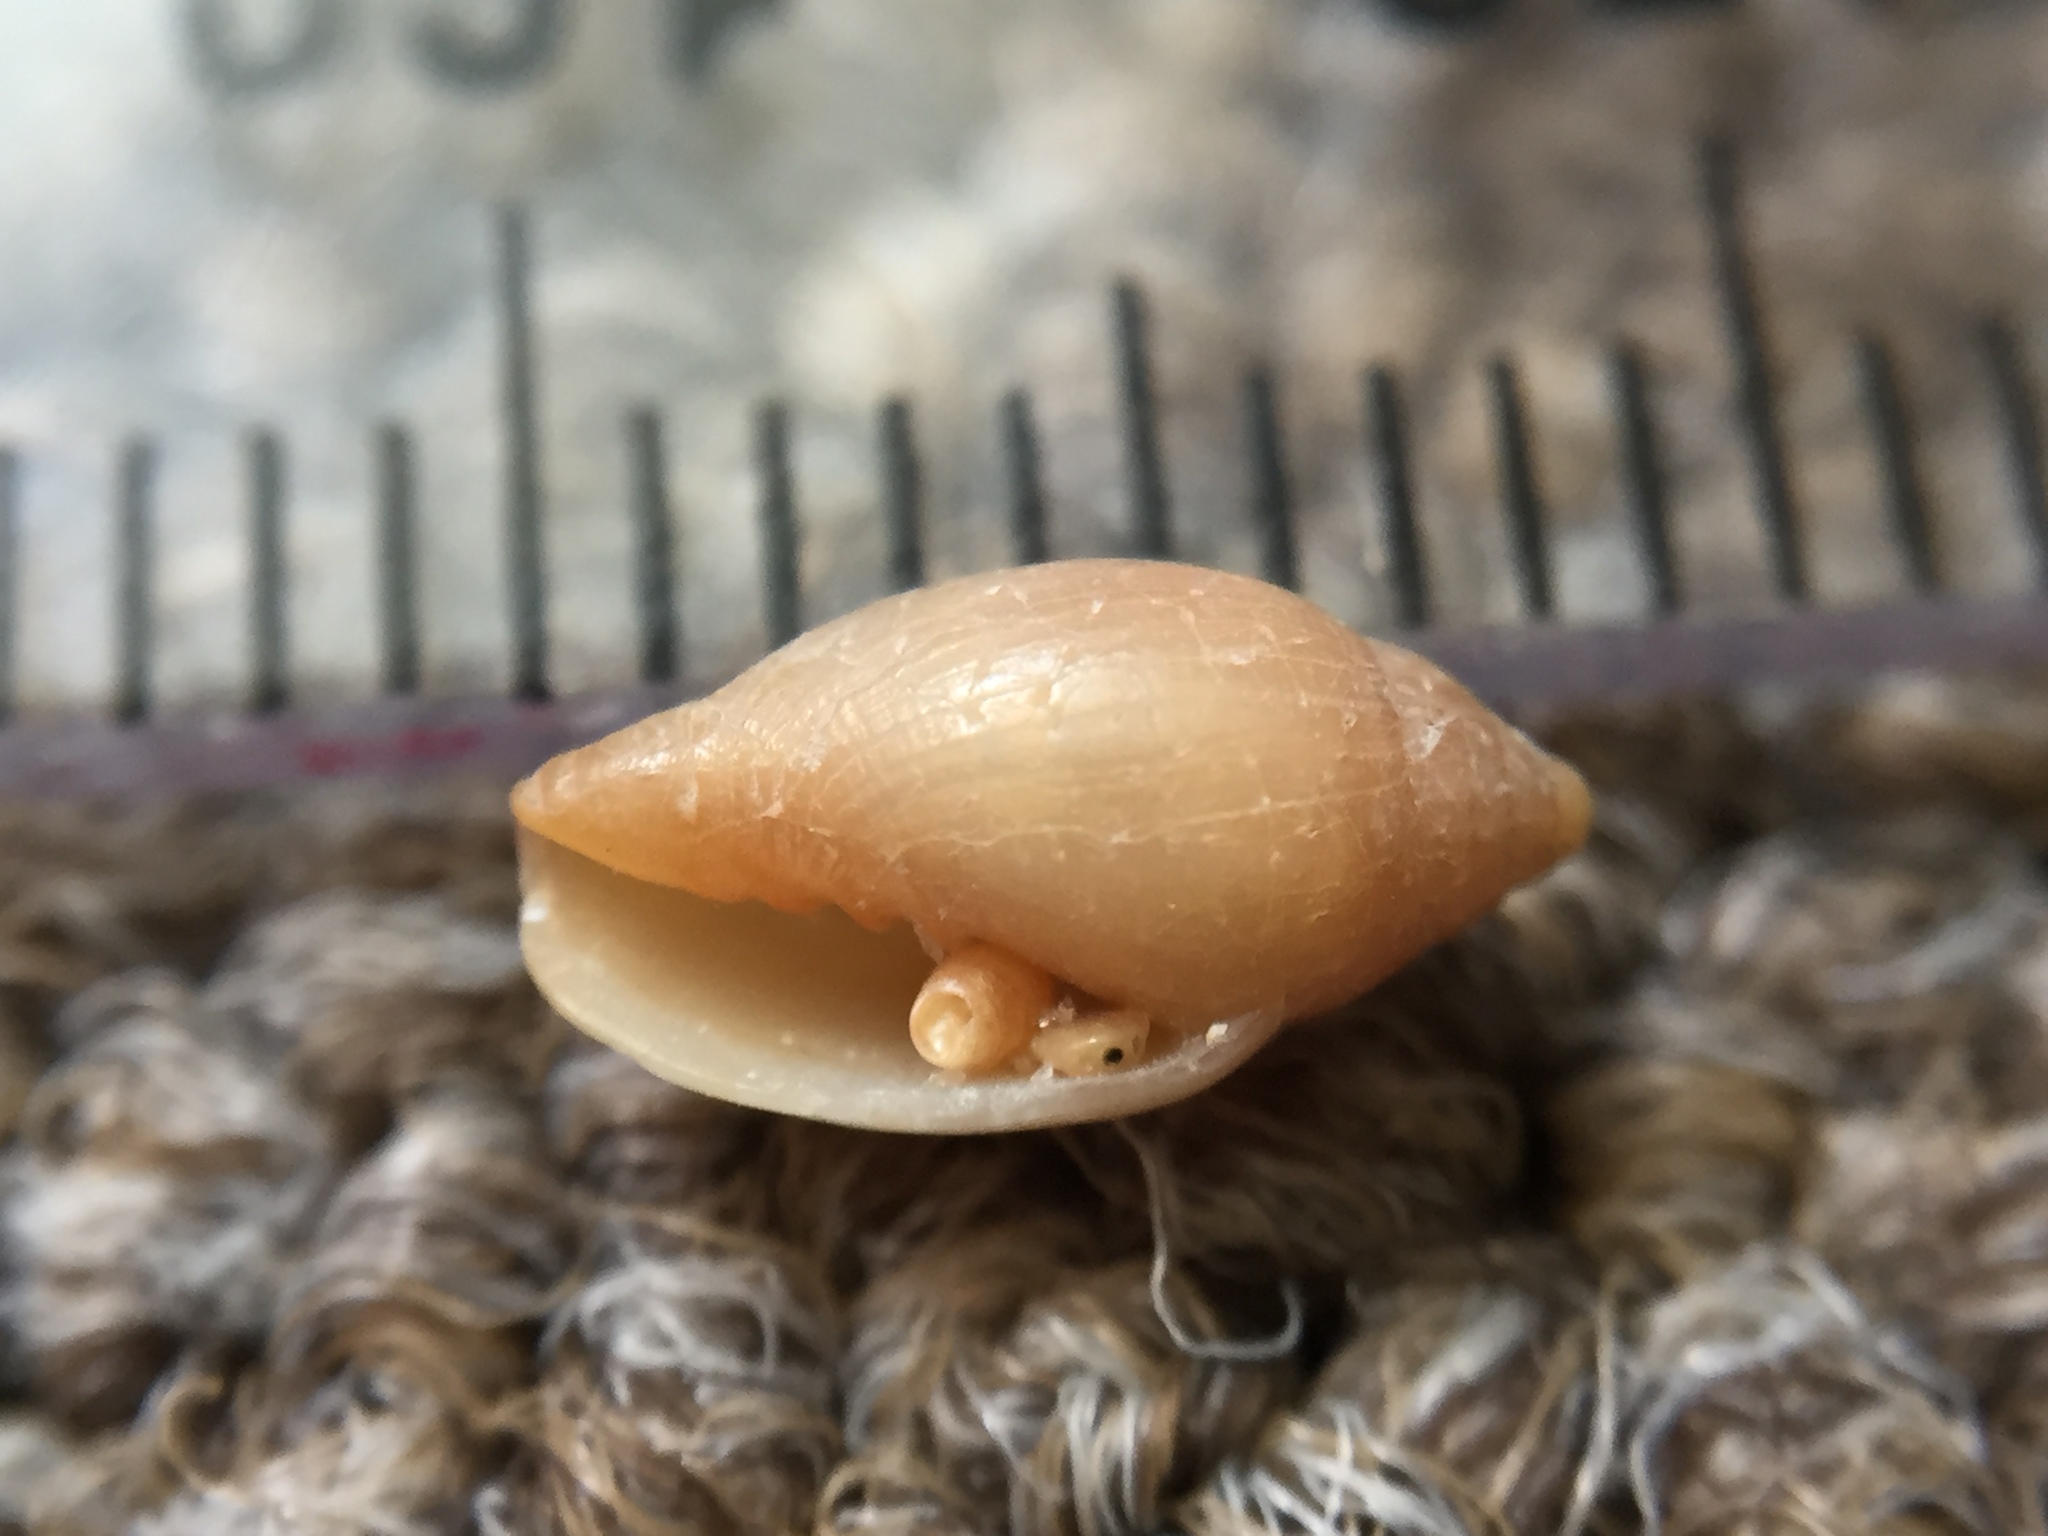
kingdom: Animalia
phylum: Mollusca
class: Gastropoda
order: Neogastropoda
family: Volutomitridae
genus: Peculator
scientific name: Peculator hedleyi
